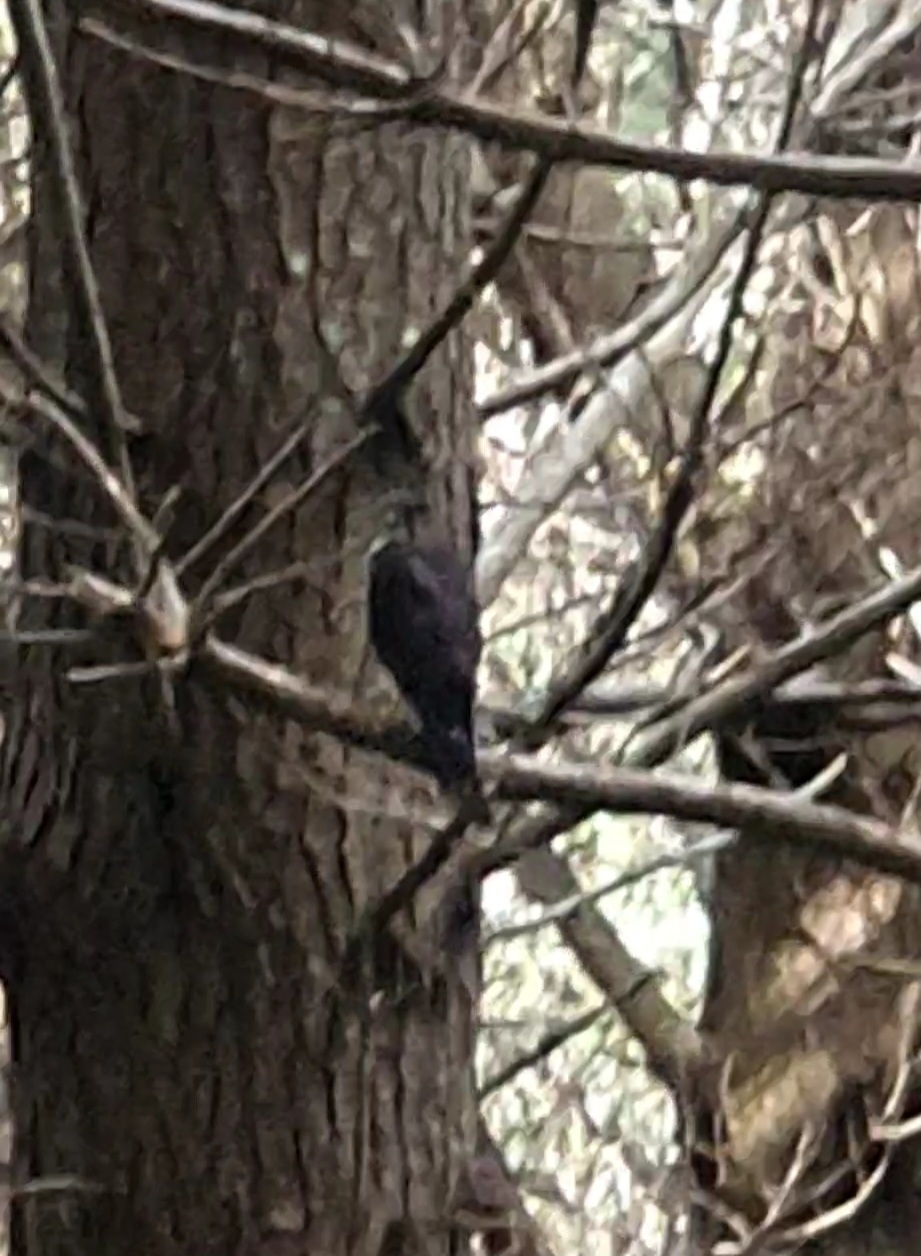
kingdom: Animalia
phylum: Chordata
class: Aves
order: Falconiformes
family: Falconidae
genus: Falco
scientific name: Falco novaeseelandiae
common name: New zealand falcon
